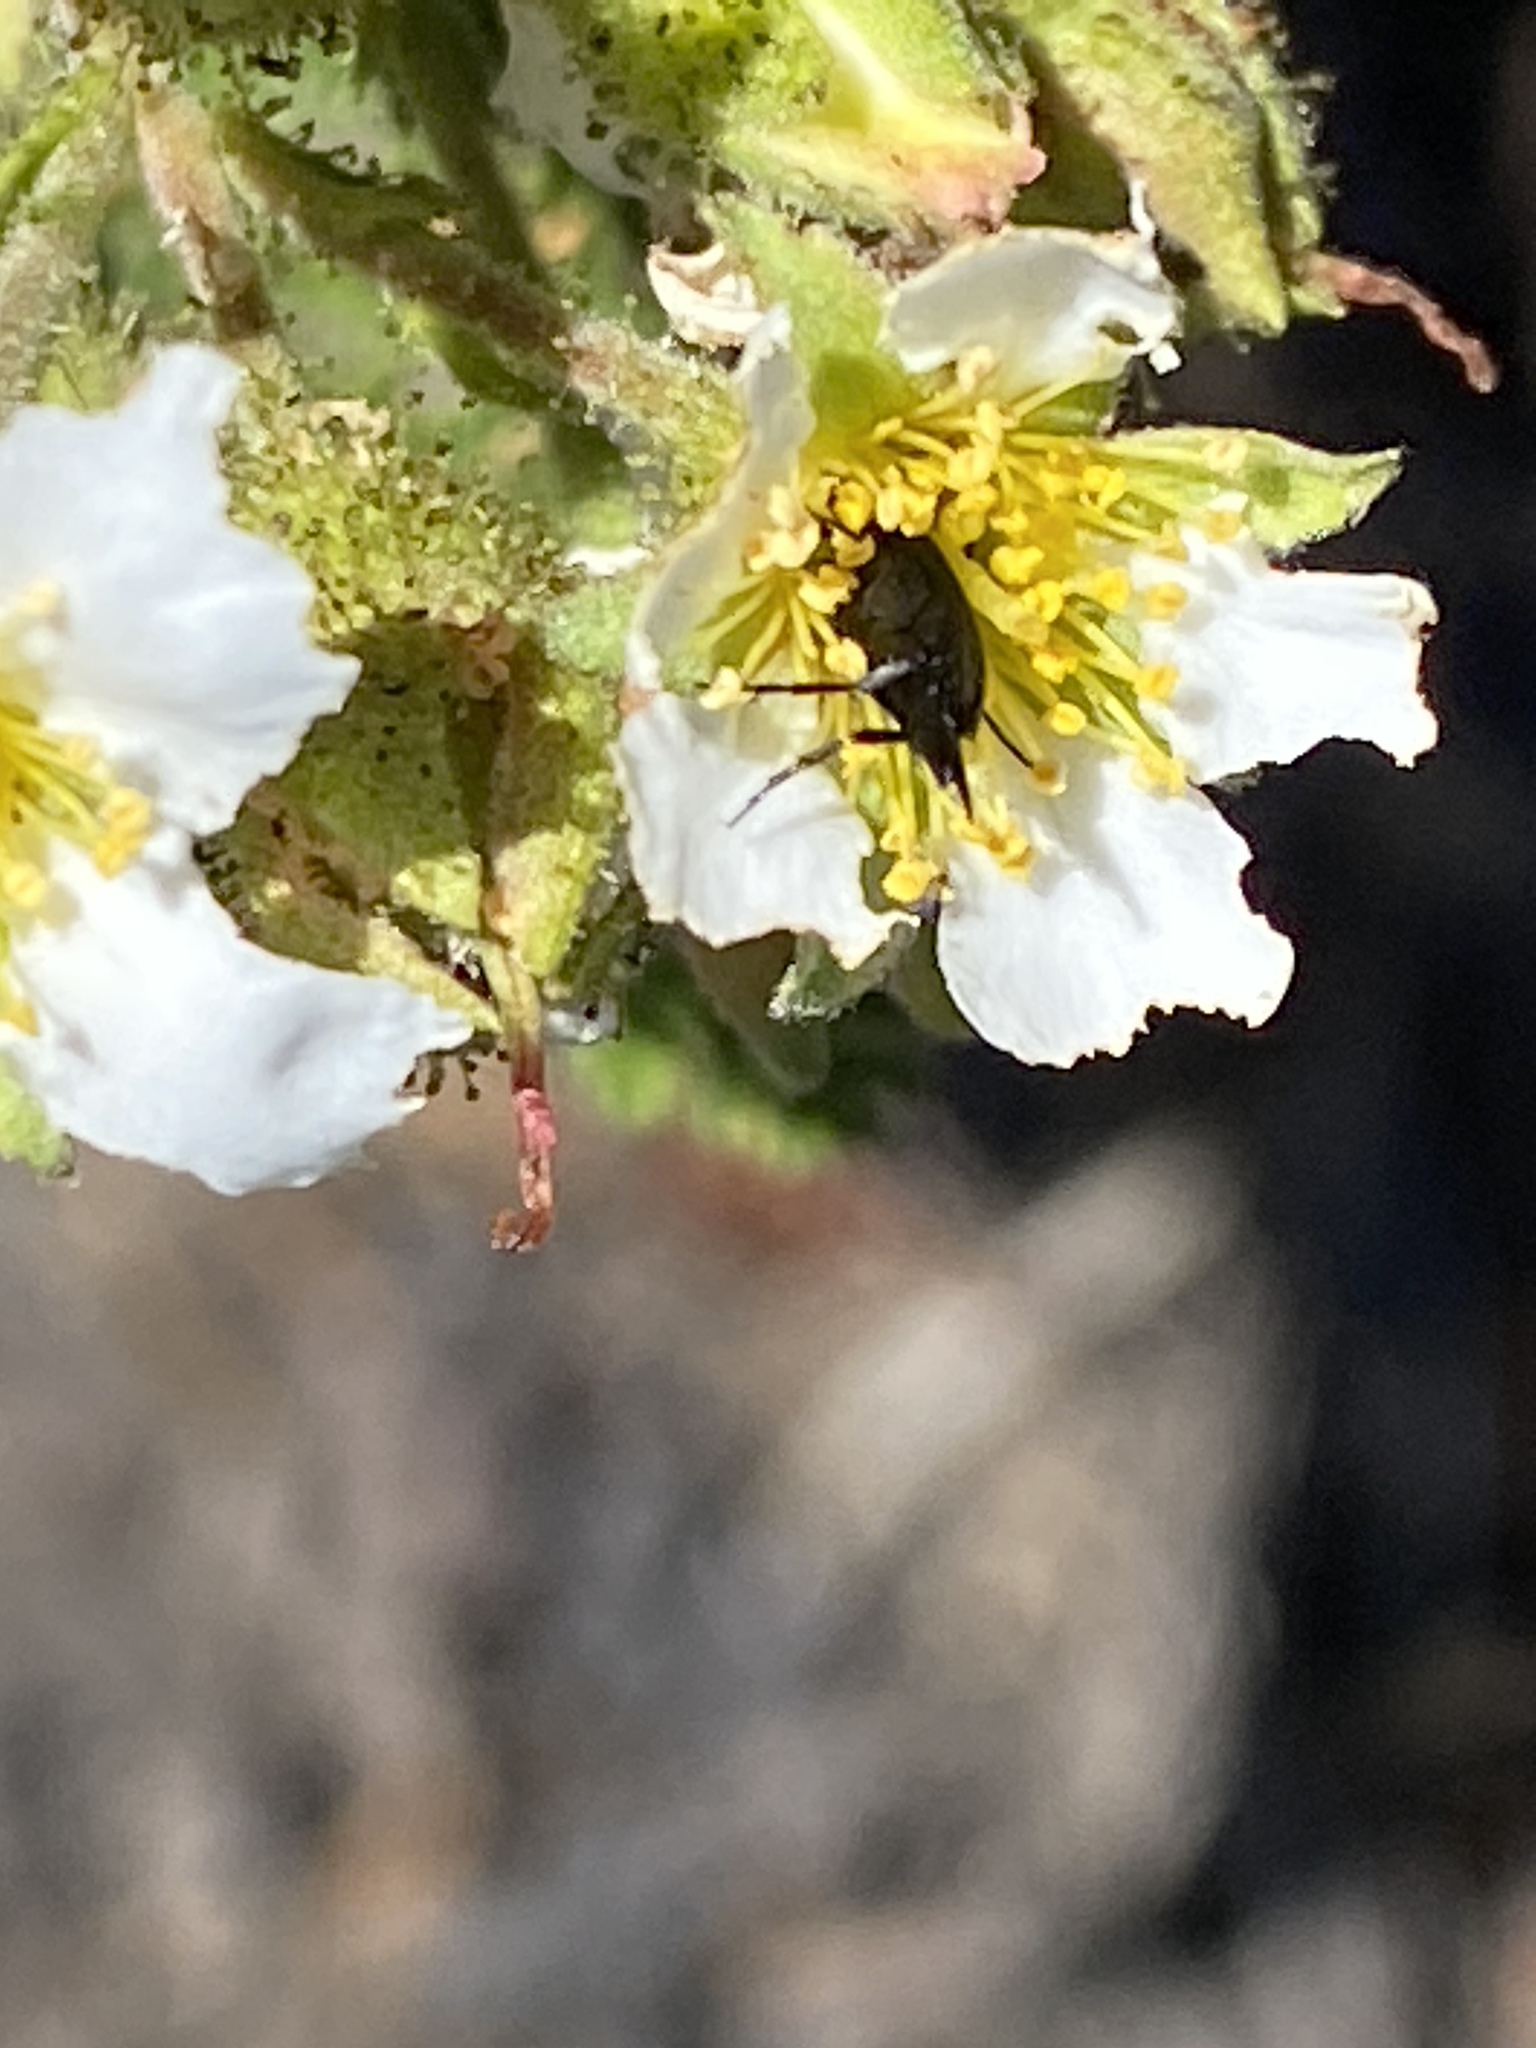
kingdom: Plantae
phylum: Tracheophyta
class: Magnoliopsida
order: Rosales
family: Rosaceae
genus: Chamaebatia
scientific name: Chamaebatia foliolosa
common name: Mountain misery
